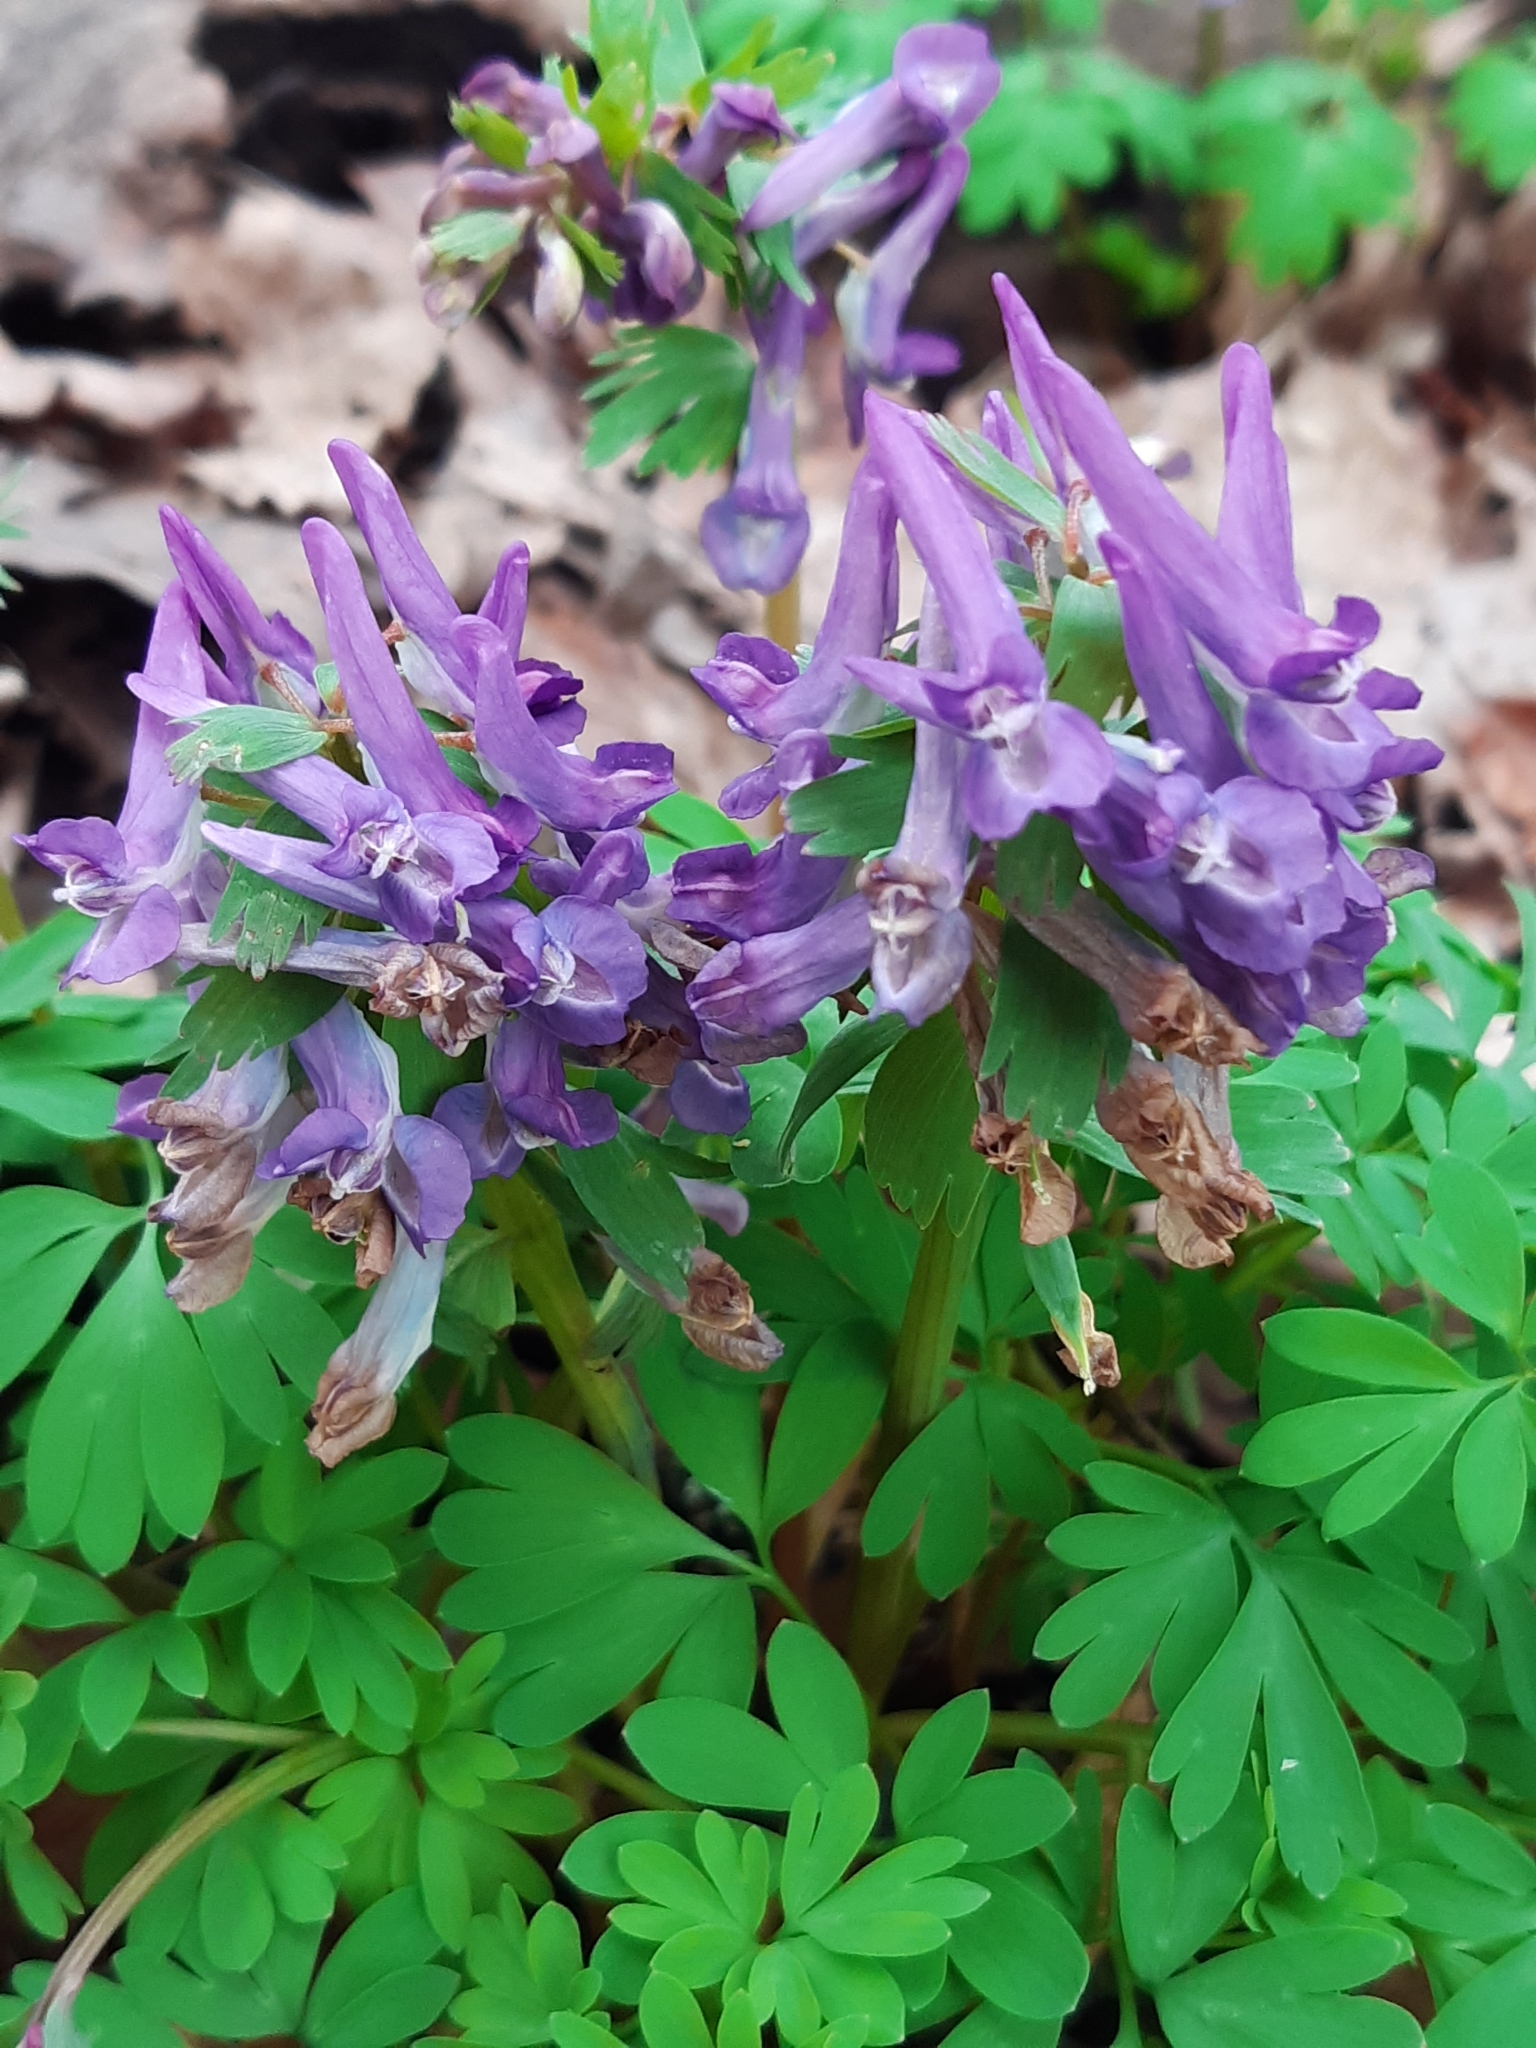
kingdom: Plantae
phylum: Tracheophyta
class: Magnoliopsida
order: Ranunculales
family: Papaveraceae
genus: Corydalis
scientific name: Corydalis solida
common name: Bird-in-a-bush
